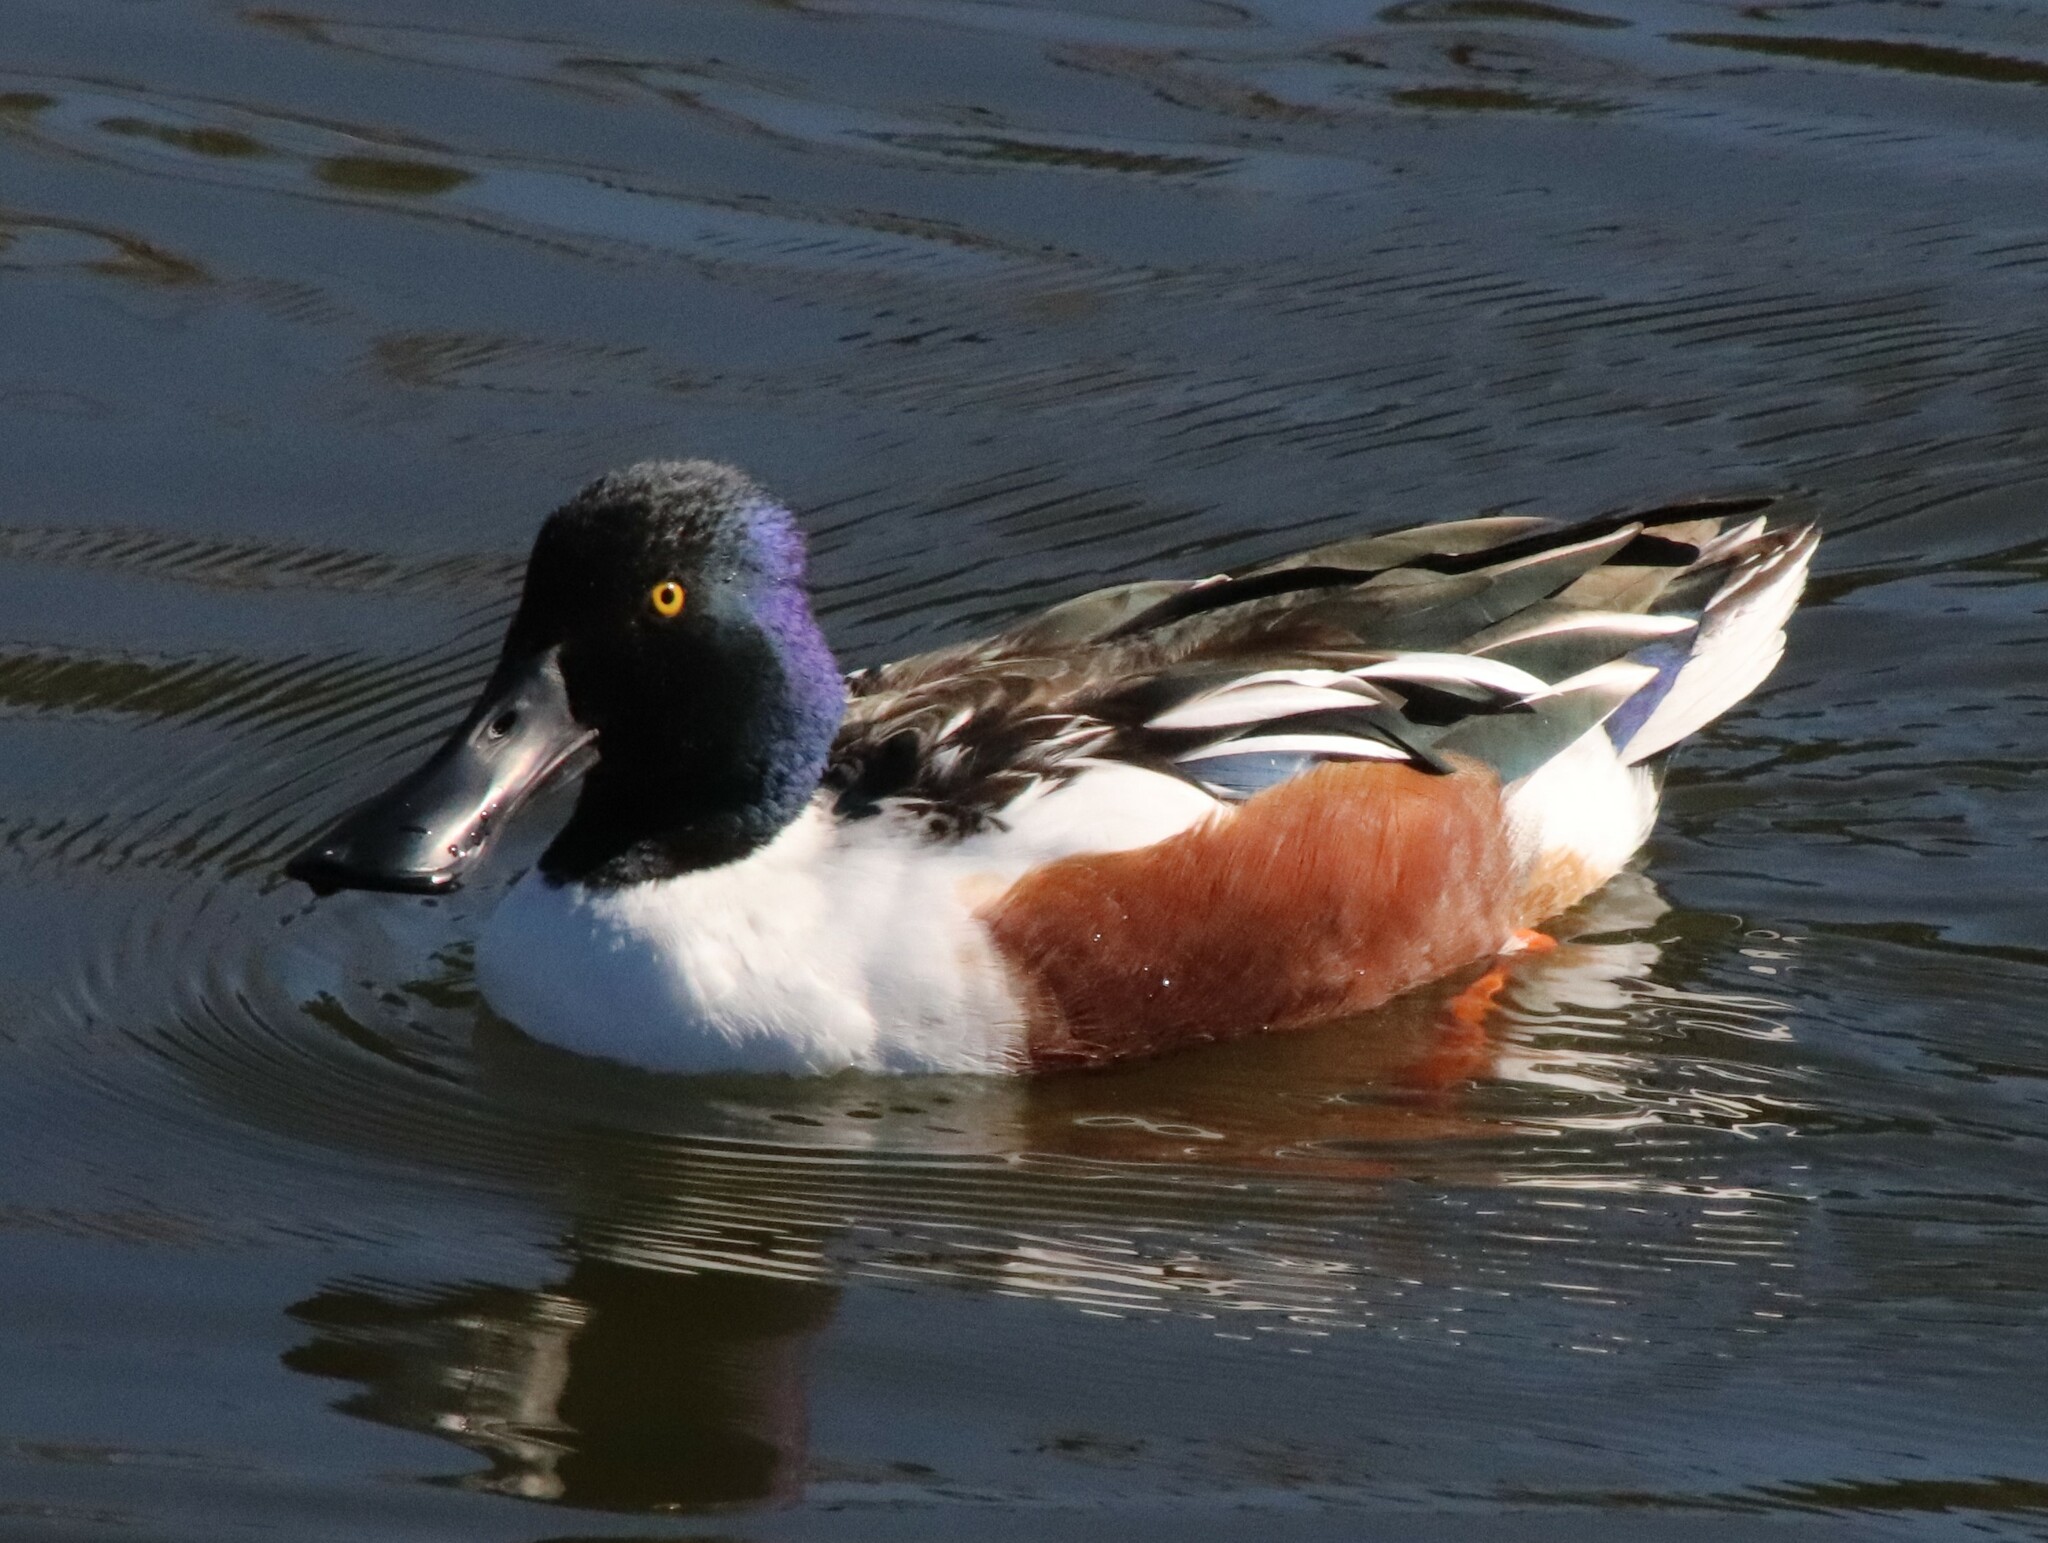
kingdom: Animalia
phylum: Chordata
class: Aves
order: Anseriformes
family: Anatidae
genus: Spatula
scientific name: Spatula clypeata
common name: Northern shoveler
